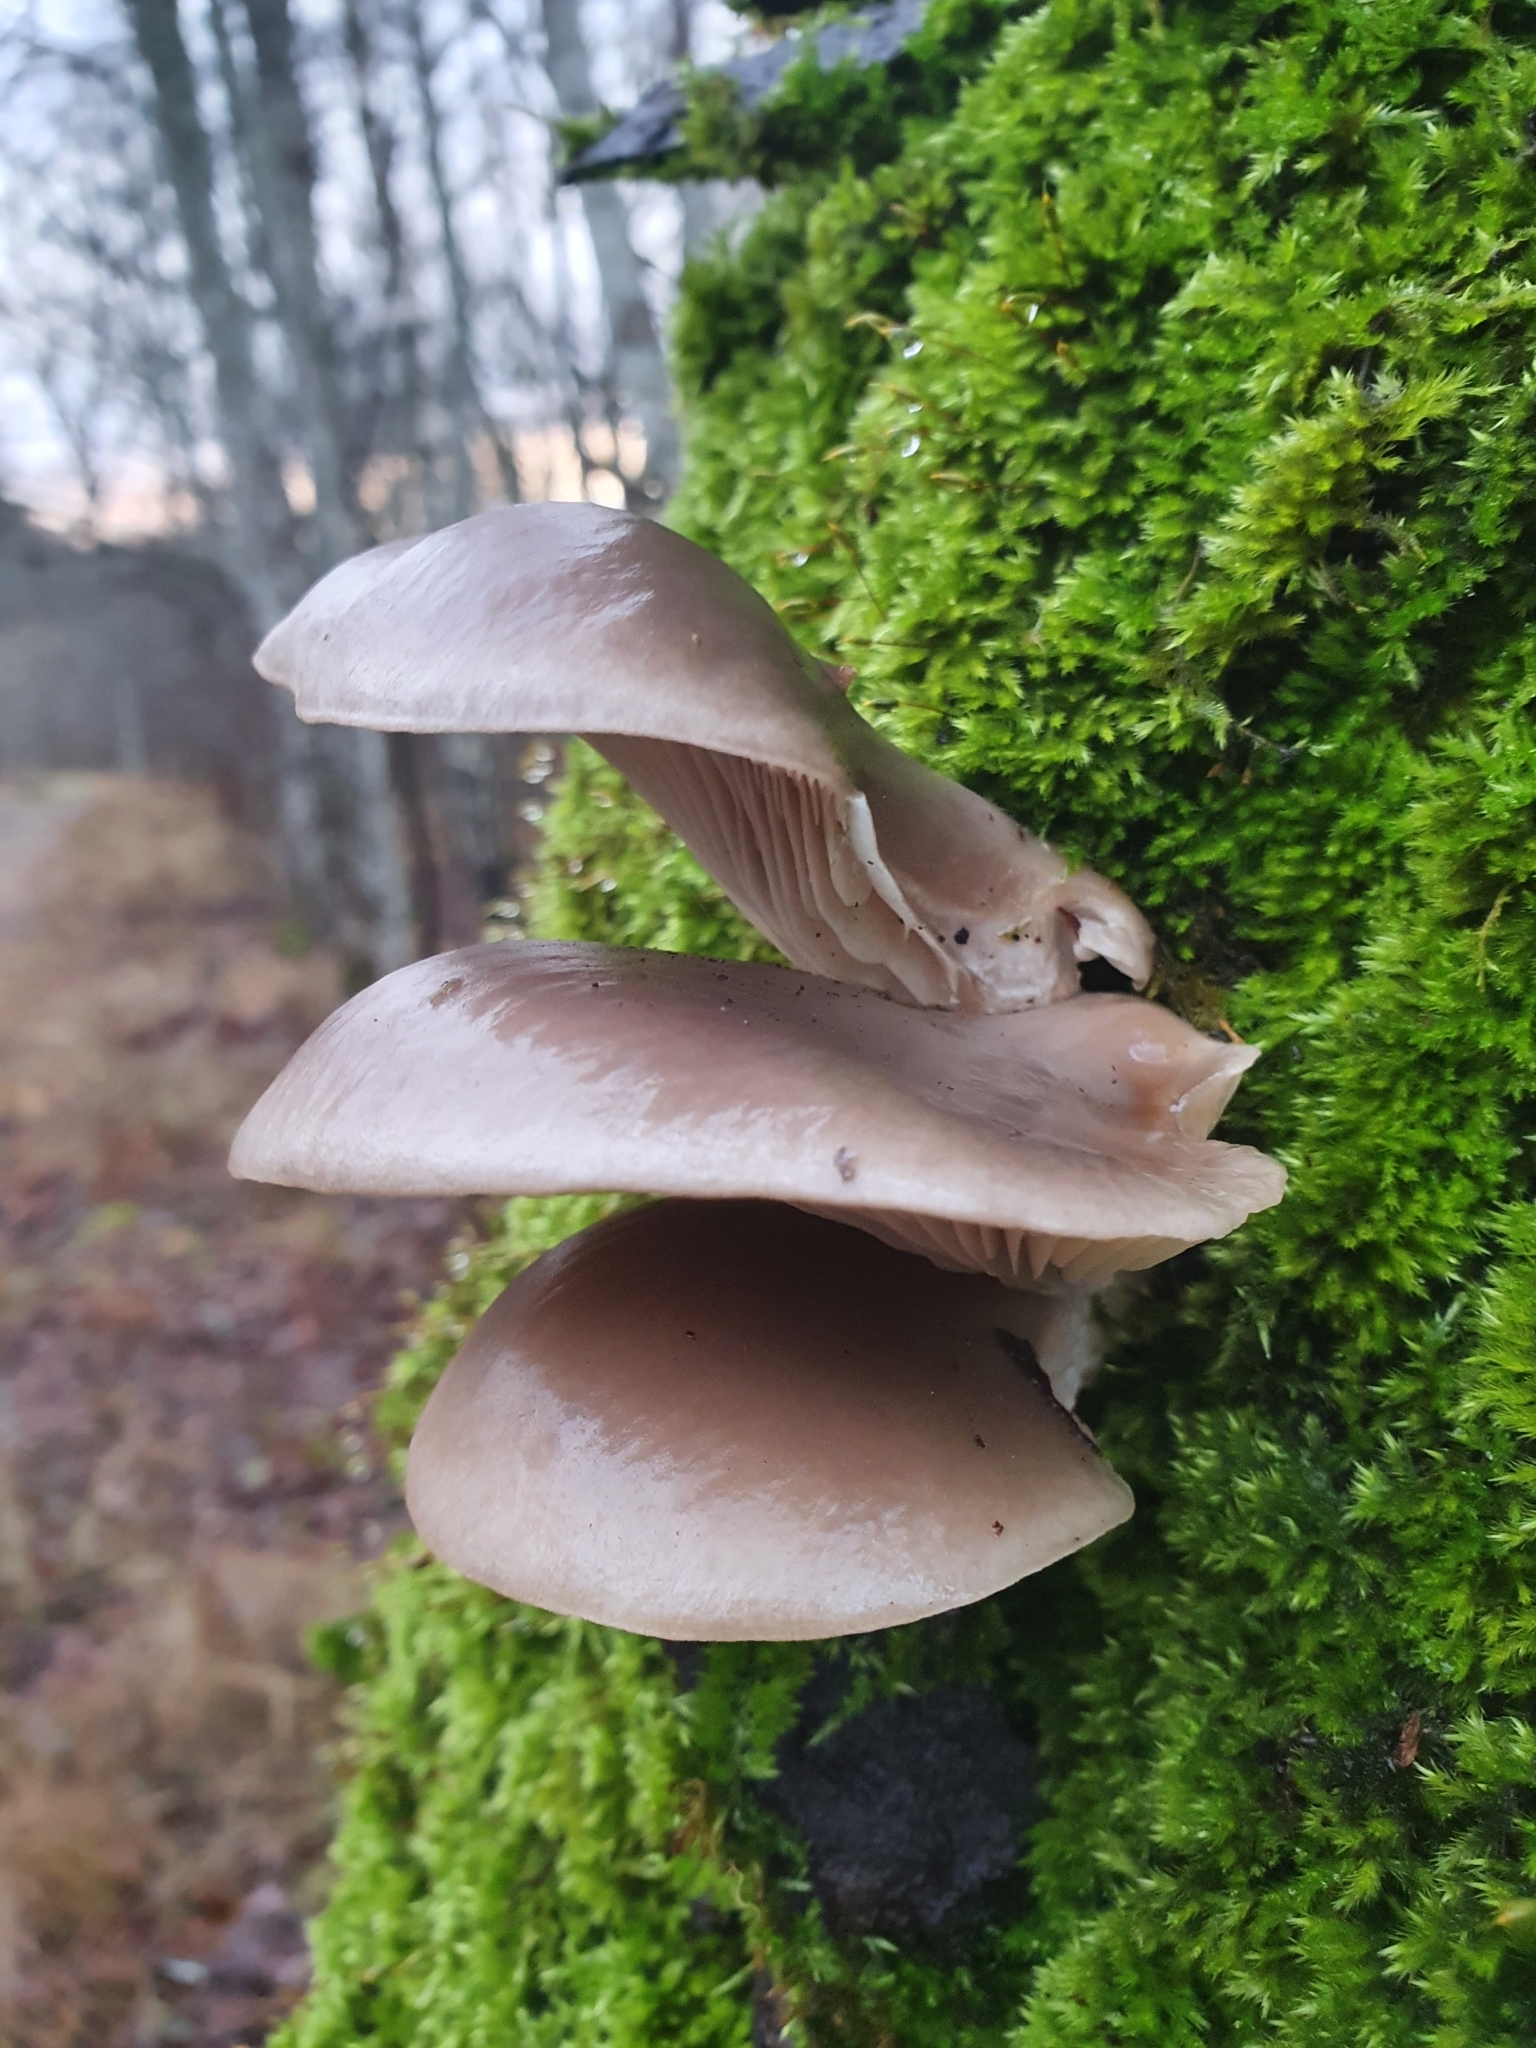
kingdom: Fungi
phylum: Basidiomycota
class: Agaricomycetes
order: Agaricales
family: Pleurotaceae
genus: Pleurotus
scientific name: Pleurotus ostreatus
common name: Oyster mushroom
